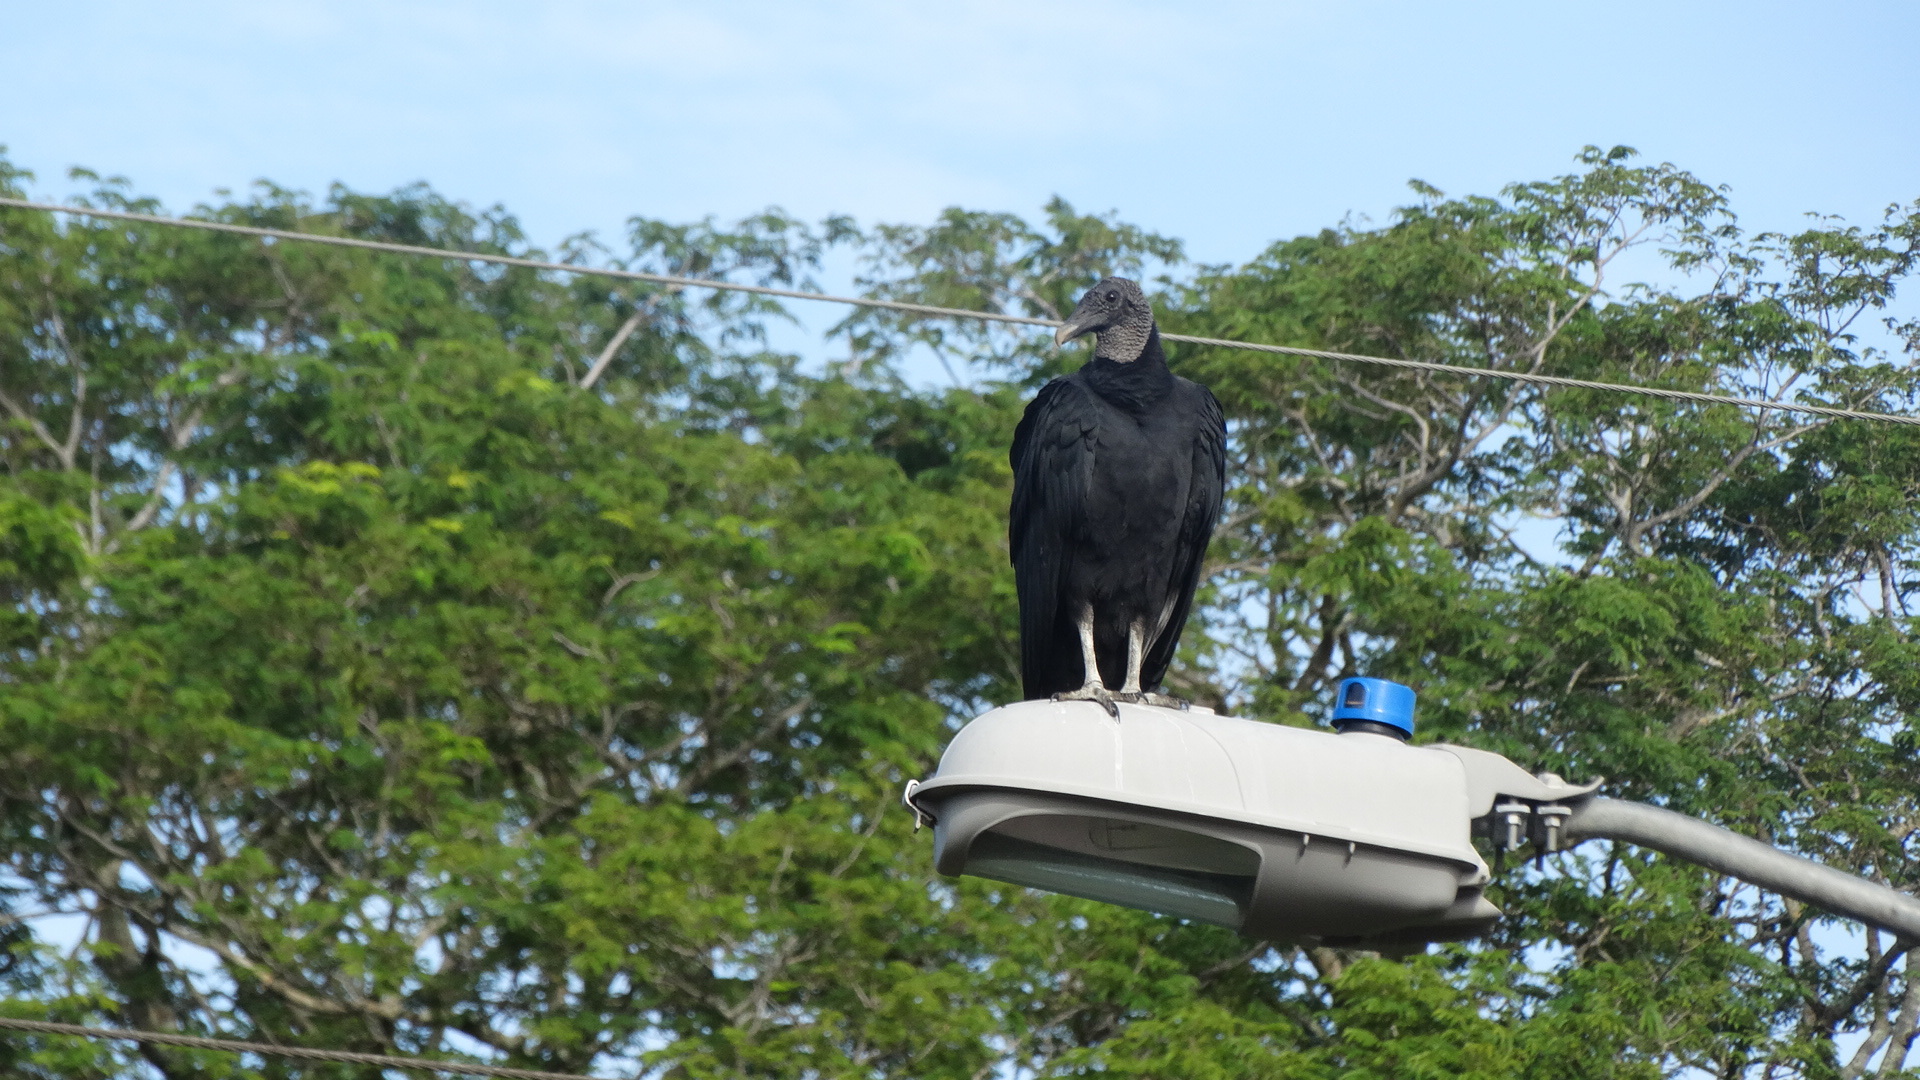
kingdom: Animalia
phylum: Chordata
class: Aves
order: Accipitriformes
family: Cathartidae
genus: Coragyps
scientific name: Coragyps atratus
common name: Black vulture
